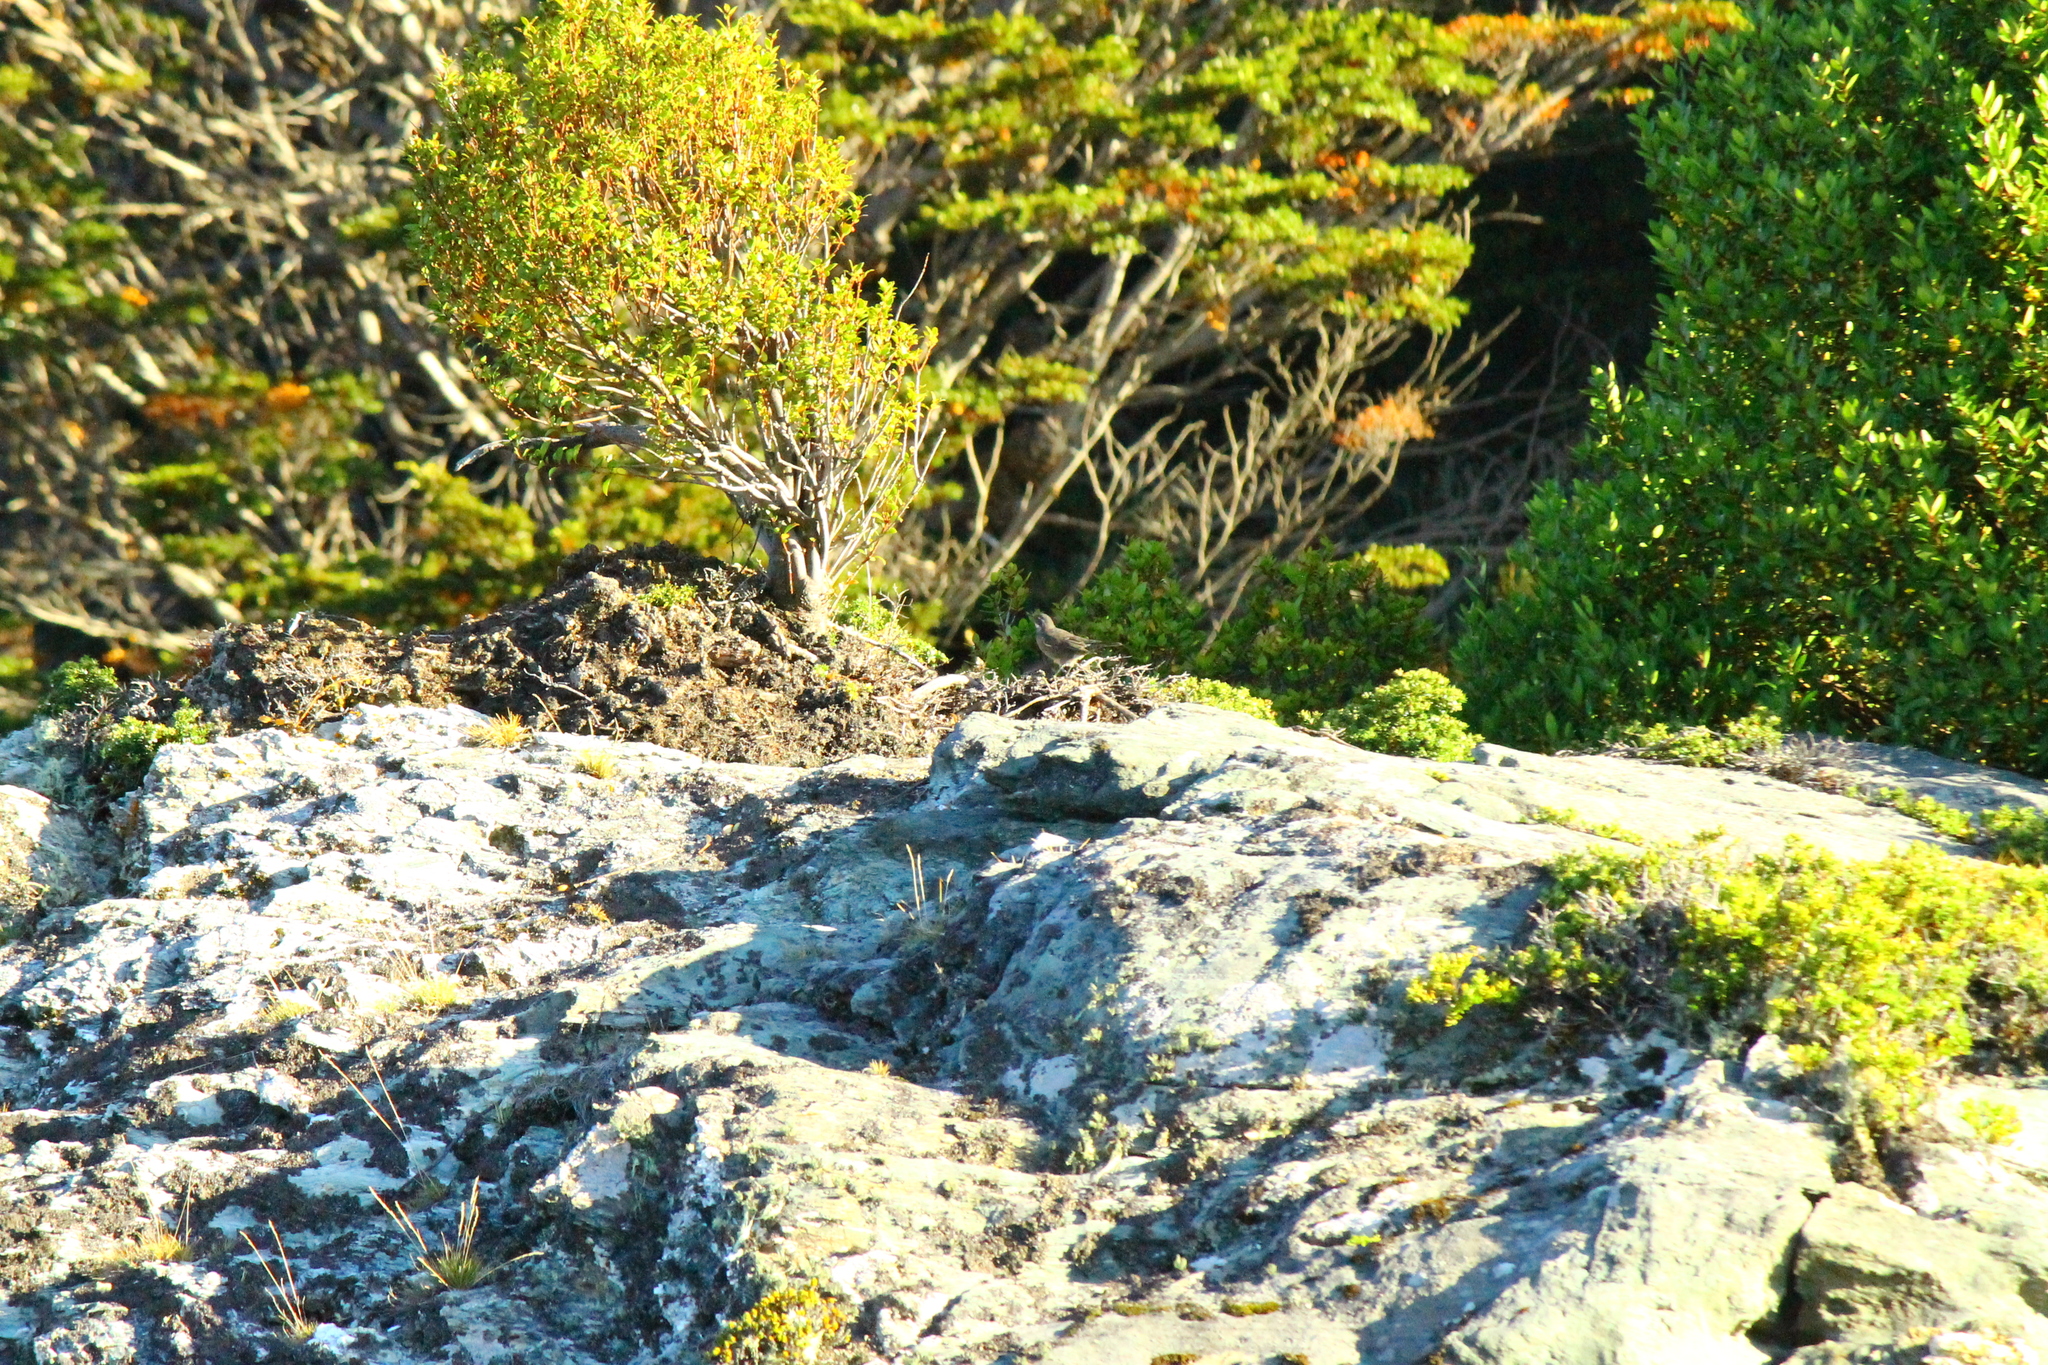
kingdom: Animalia
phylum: Chordata
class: Aves
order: Passeriformes
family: Furnariidae
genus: Cinclodes
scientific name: Cinclodes patagonicus
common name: Dark-bellied cinclodes
